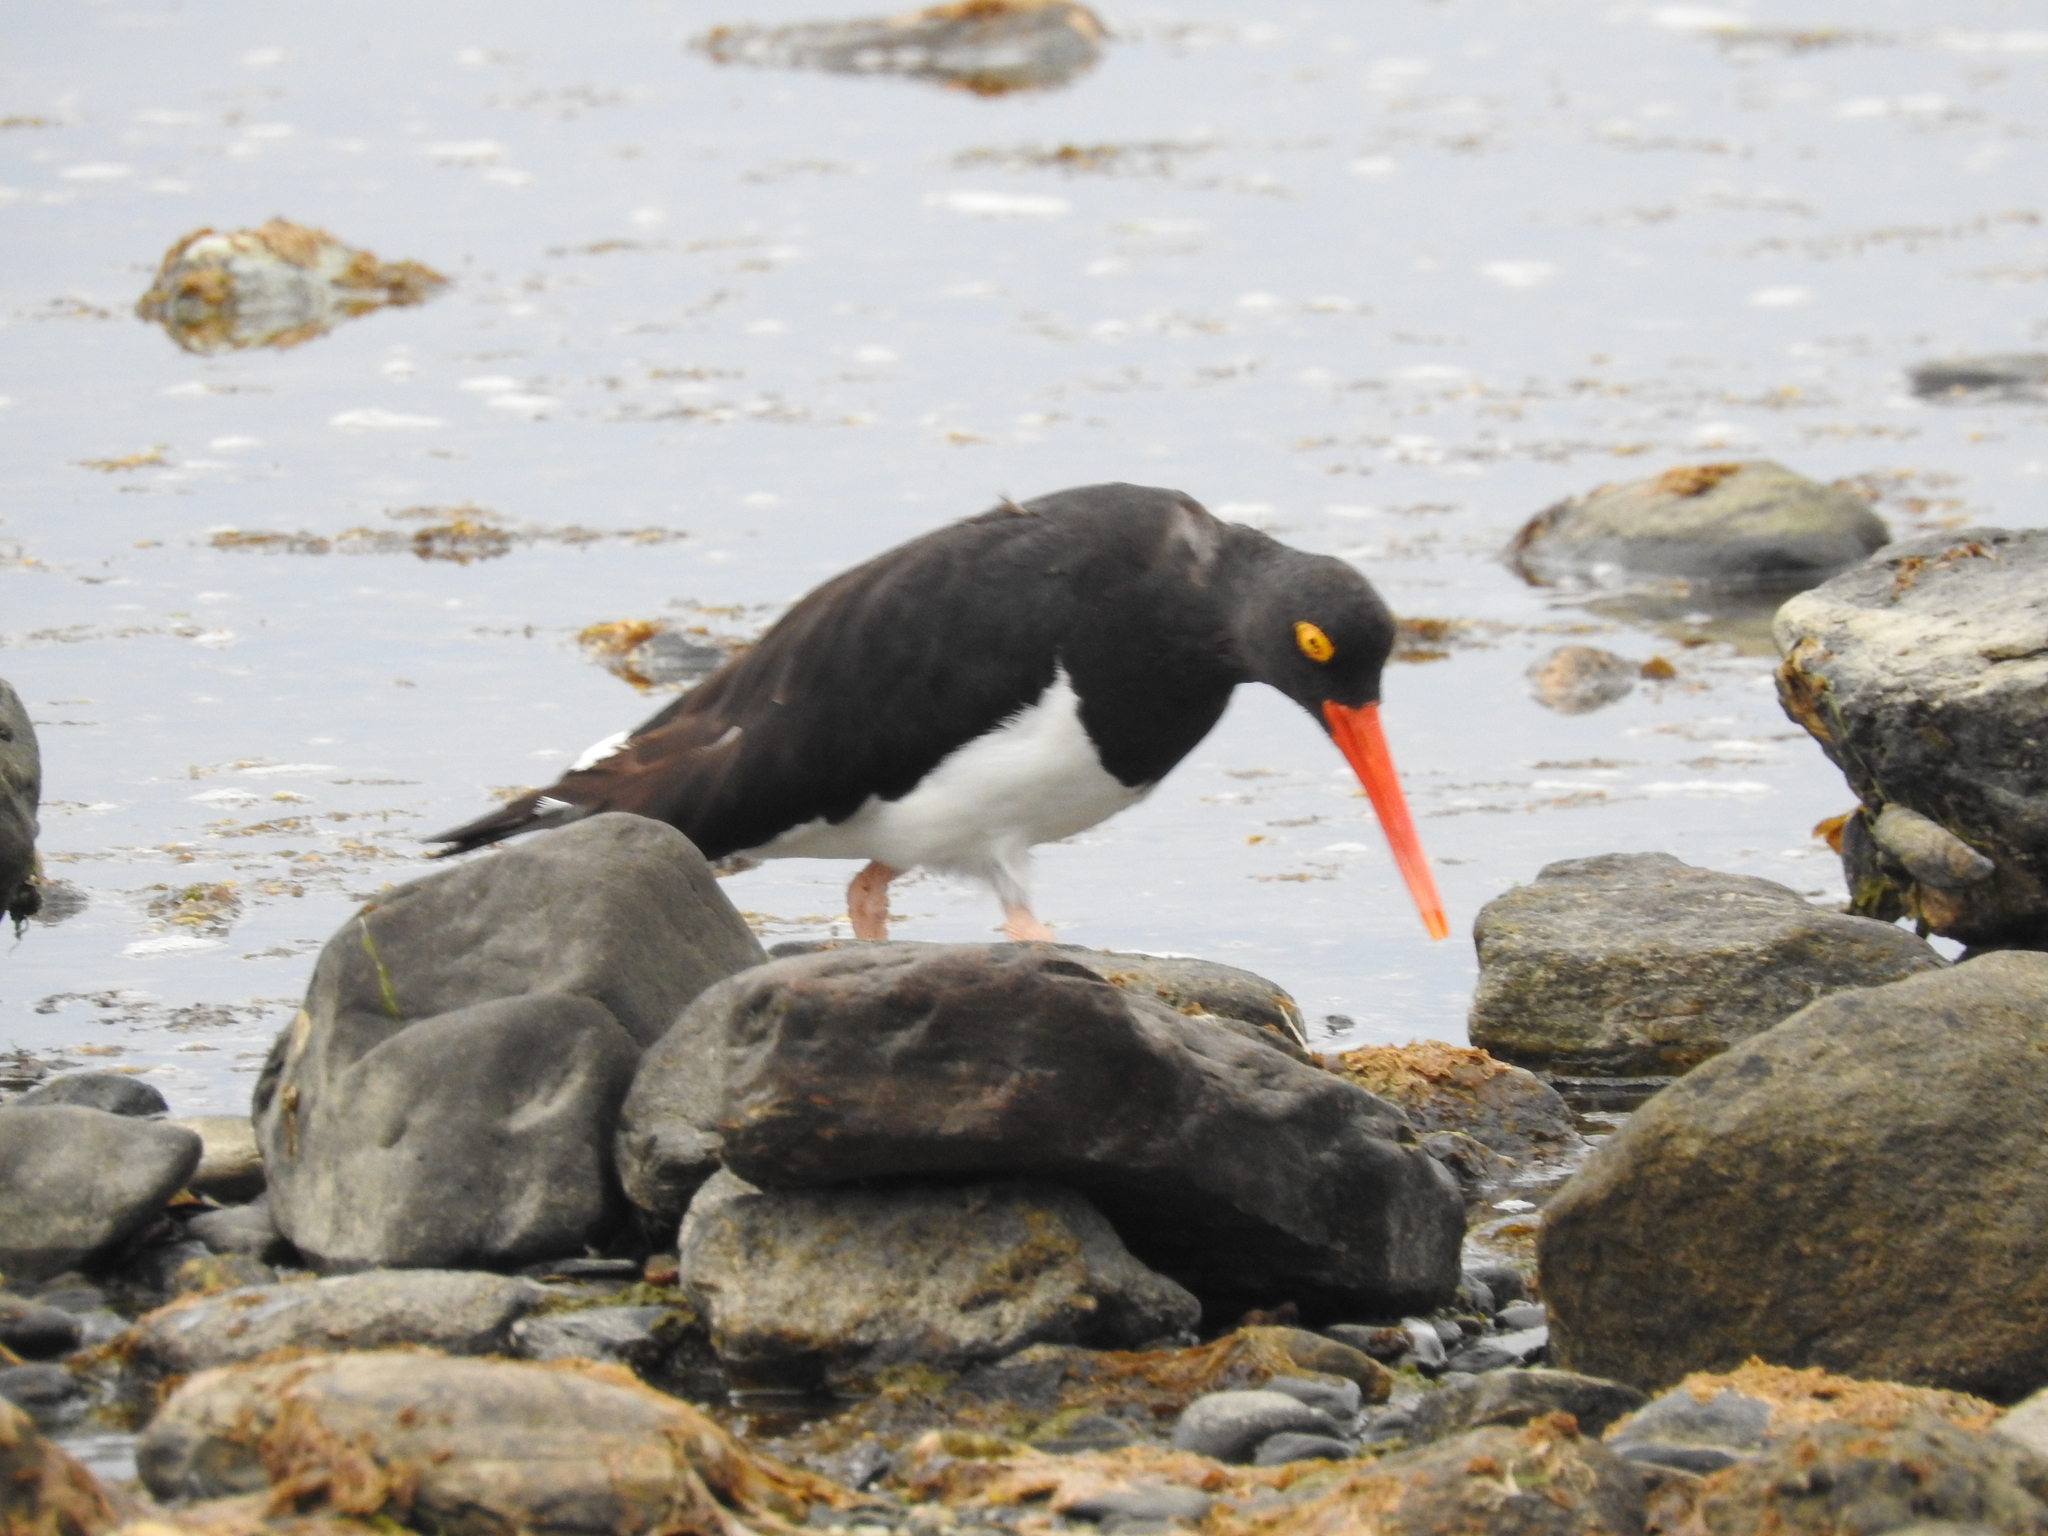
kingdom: Animalia
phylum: Chordata
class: Aves
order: Charadriiformes
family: Haematopodidae
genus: Haematopus
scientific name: Haematopus leucopodus
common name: Magellanic oystercatcher
